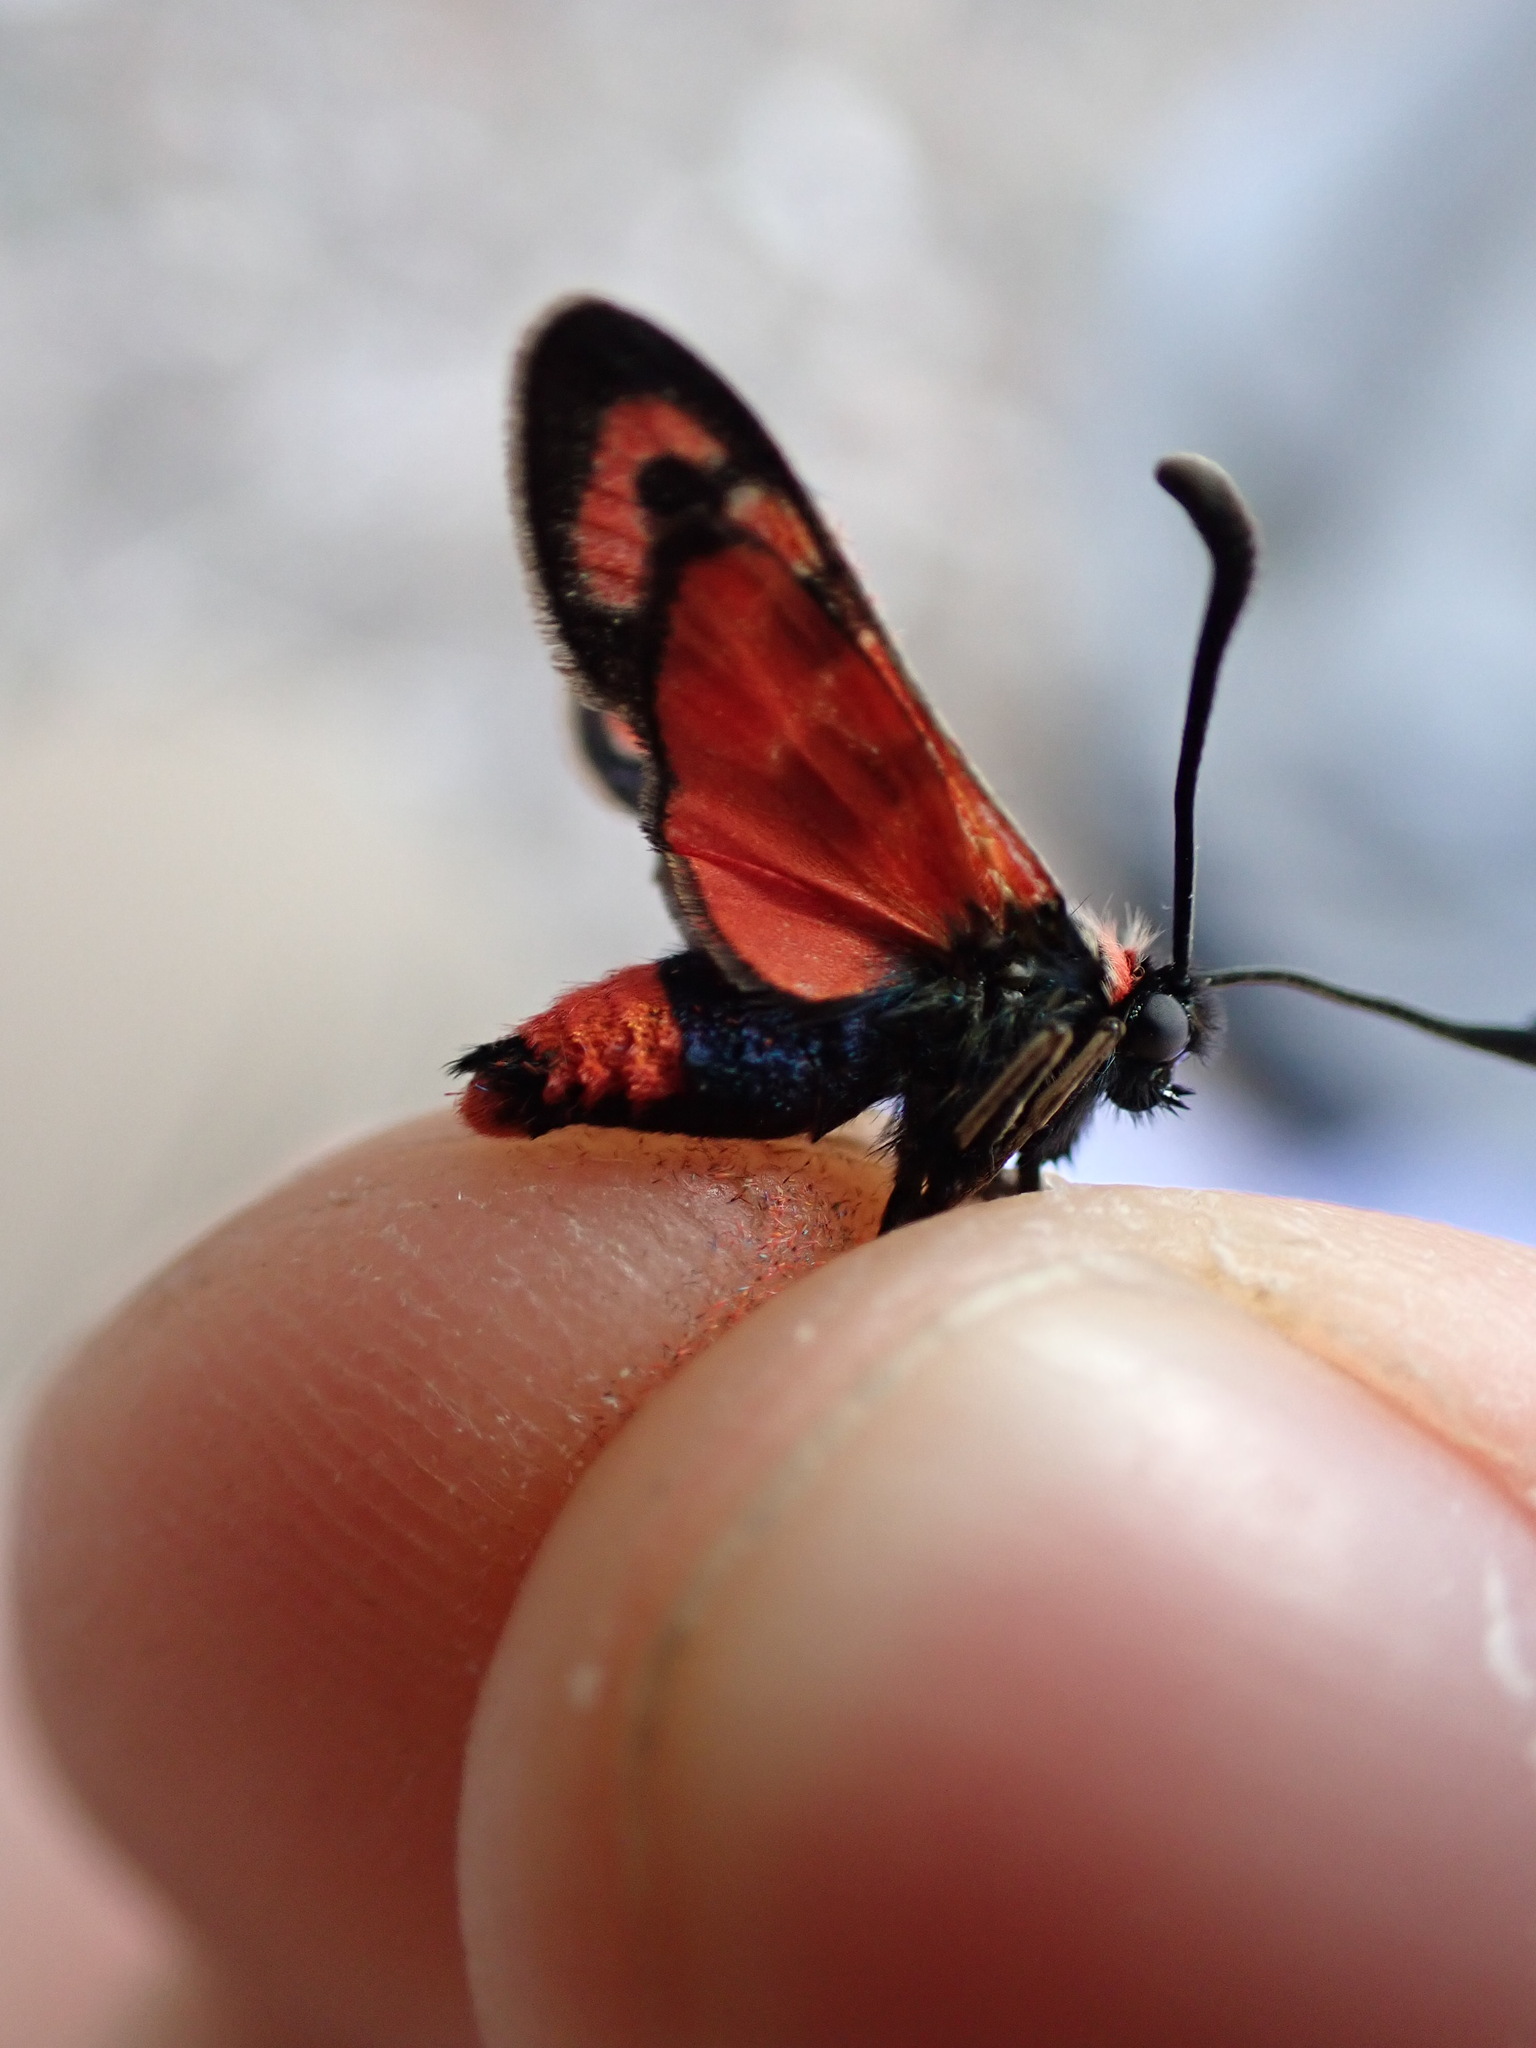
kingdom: Animalia
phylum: Arthropoda
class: Insecta
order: Lepidoptera
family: Zygaenidae
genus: Zygaena
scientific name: Zygaena fausta
